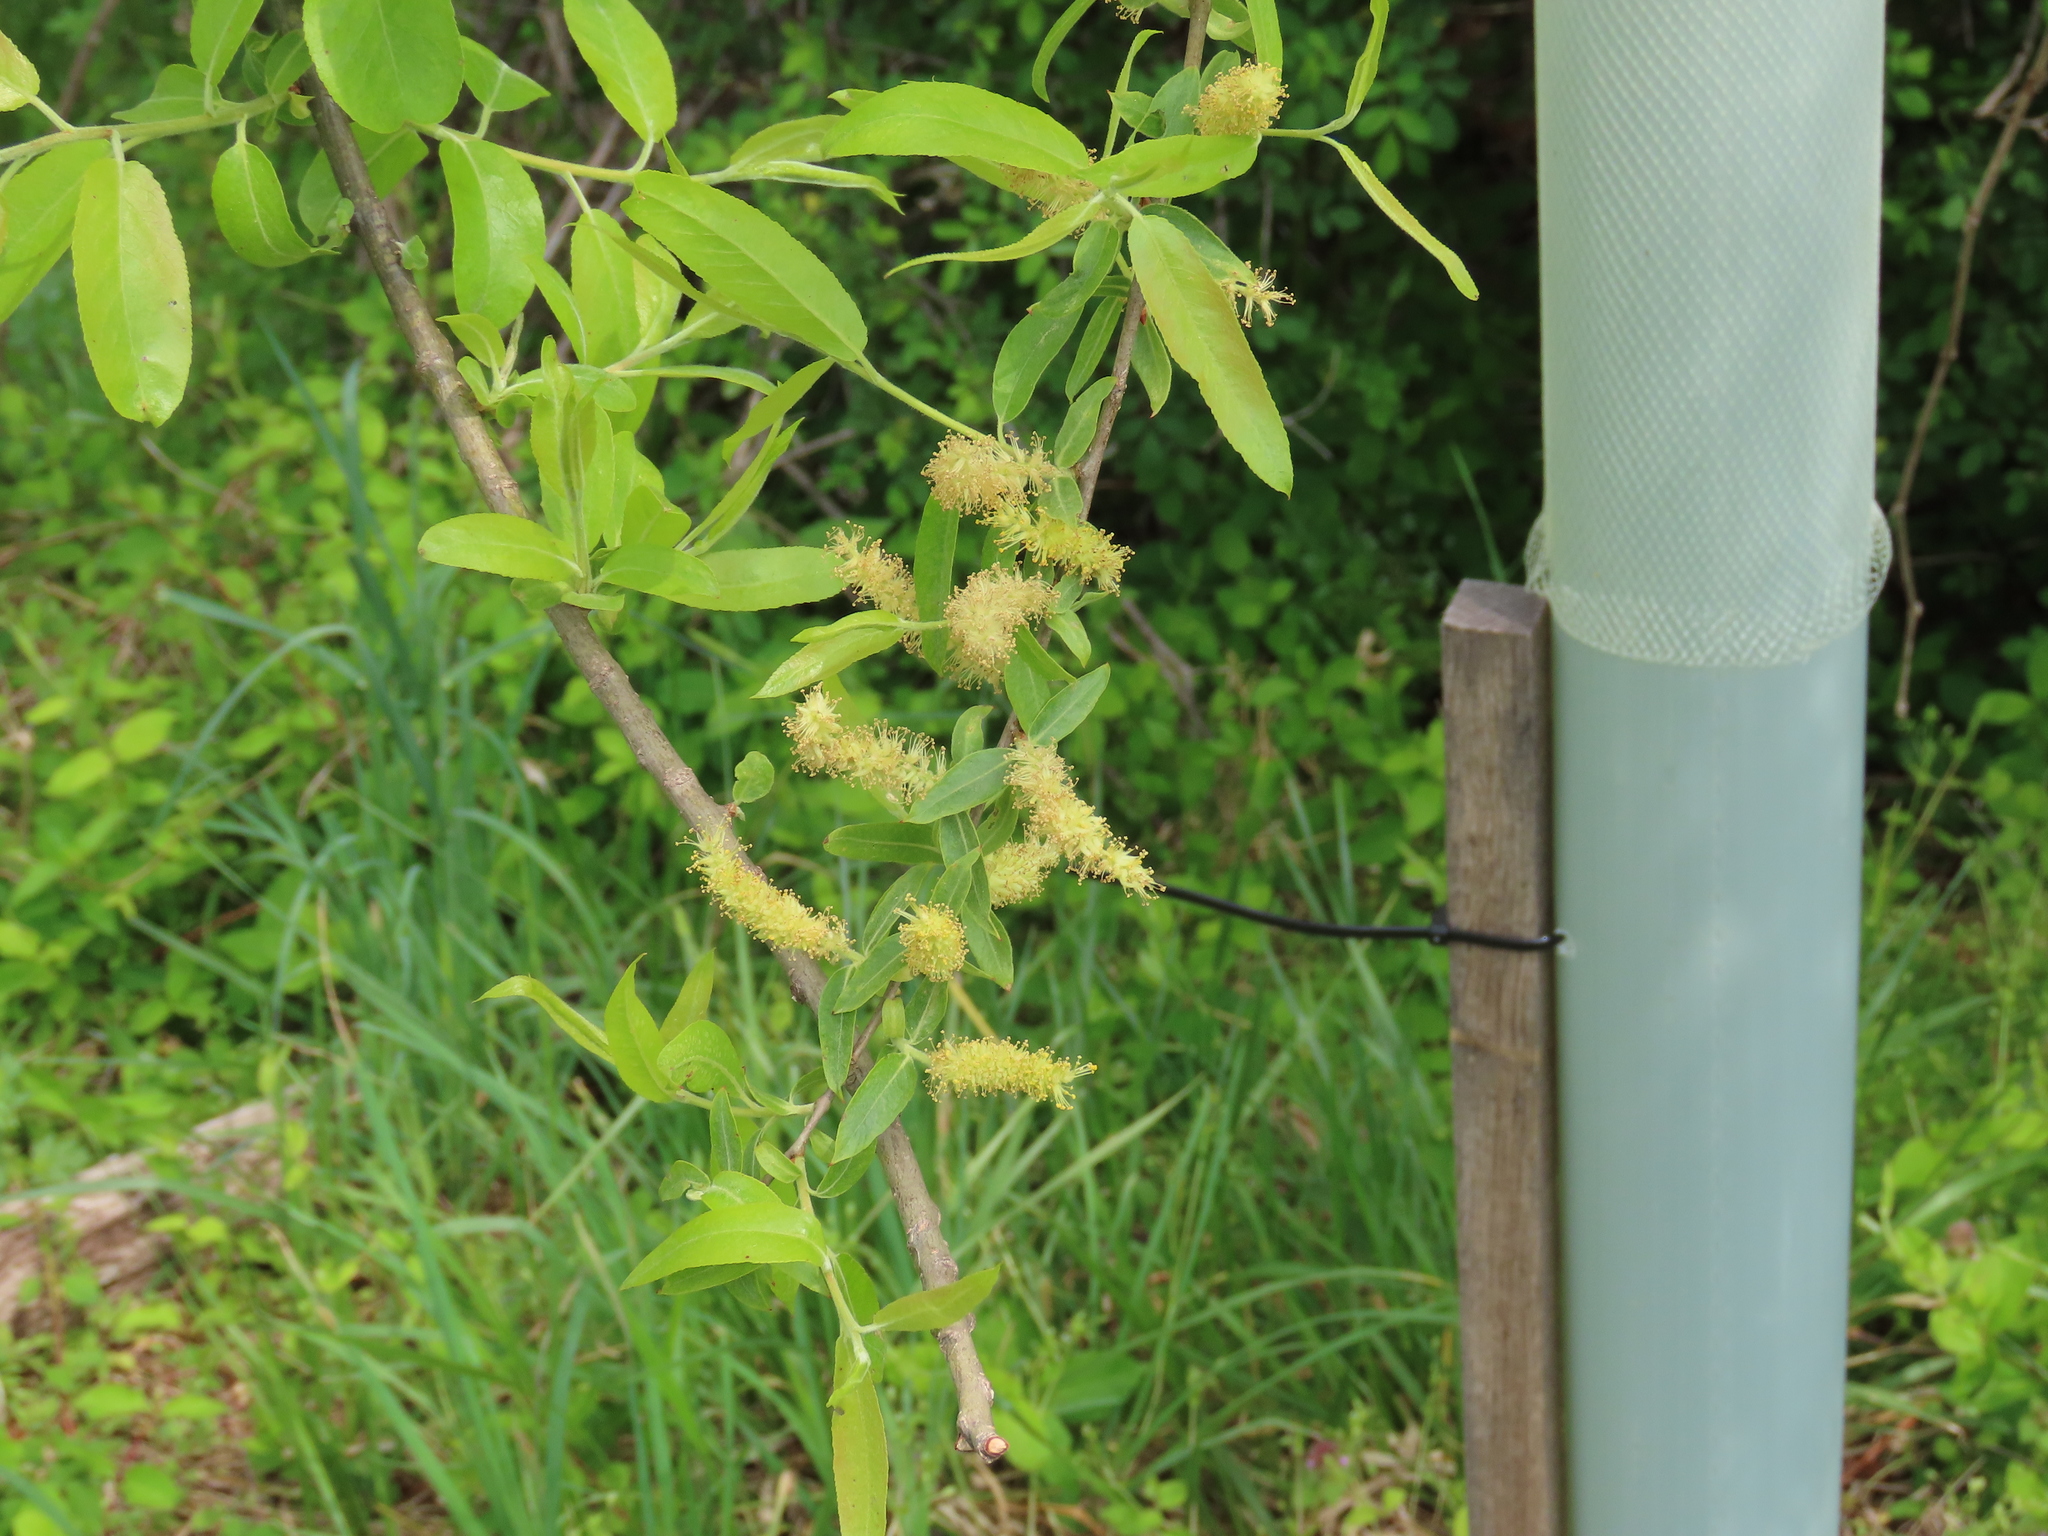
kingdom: Plantae
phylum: Tracheophyta
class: Magnoliopsida
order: Malpighiales
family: Salicaceae
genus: Salix
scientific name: Salix nigra
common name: Black willow
